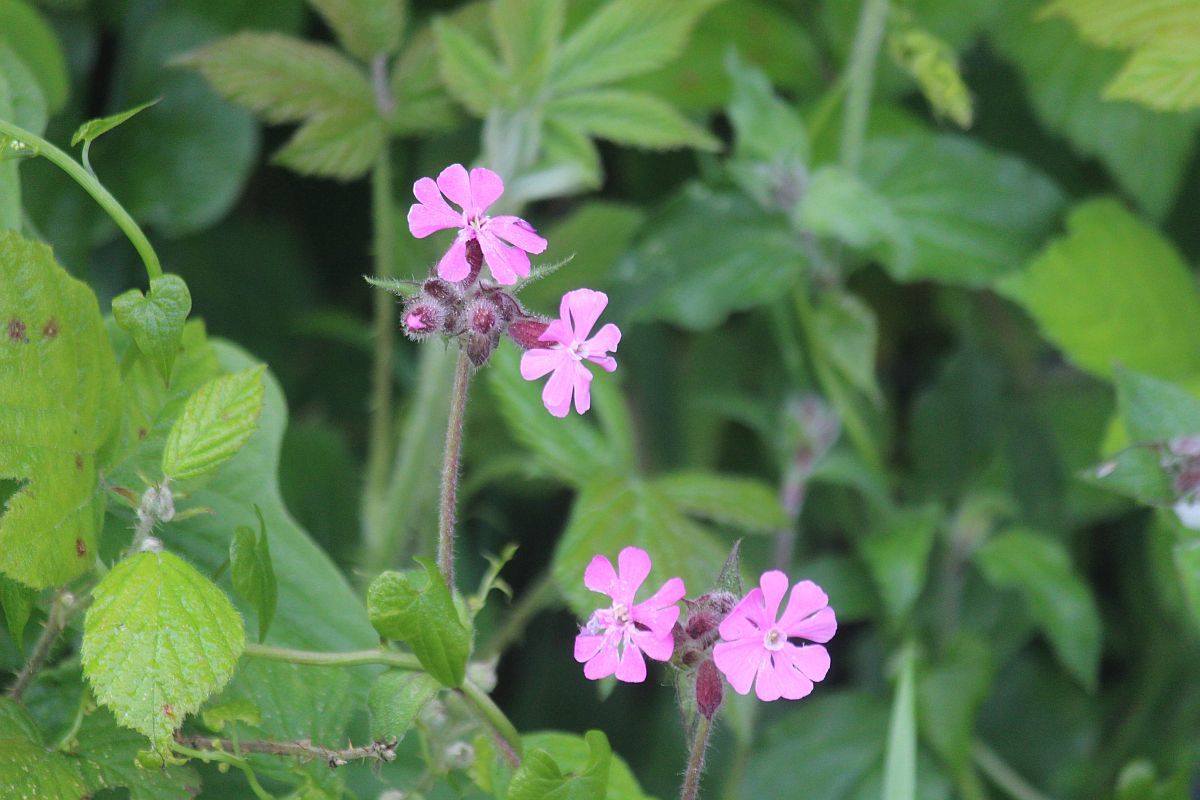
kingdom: Plantae
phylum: Tracheophyta
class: Magnoliopsida
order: Caryophyllales
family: Caryophyllaceae
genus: Silene
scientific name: Silene dioica
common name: Red campion
